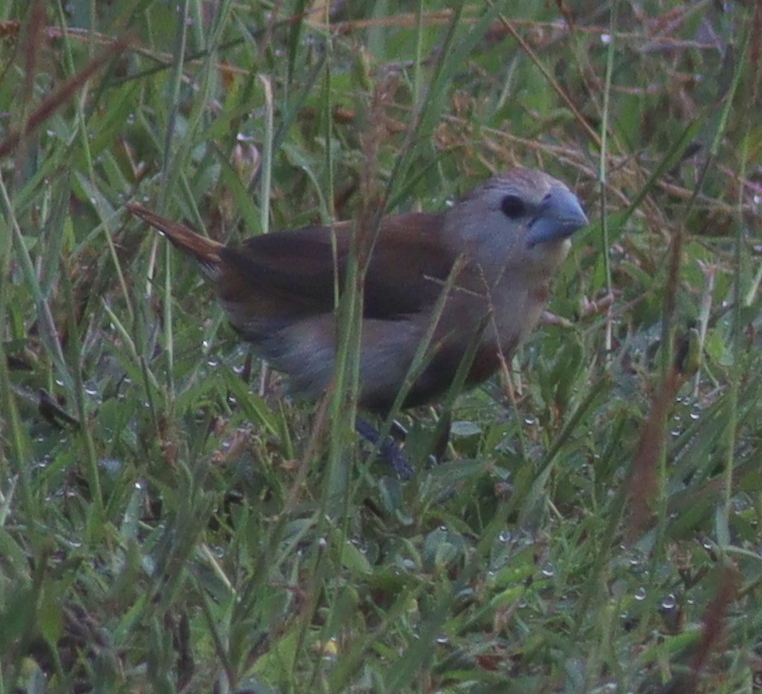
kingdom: Animalia
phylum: Chordata
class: Aves
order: Passeriformes
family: Estrildidae
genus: Lonchura
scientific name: Lonchura maja
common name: White-headed munia
